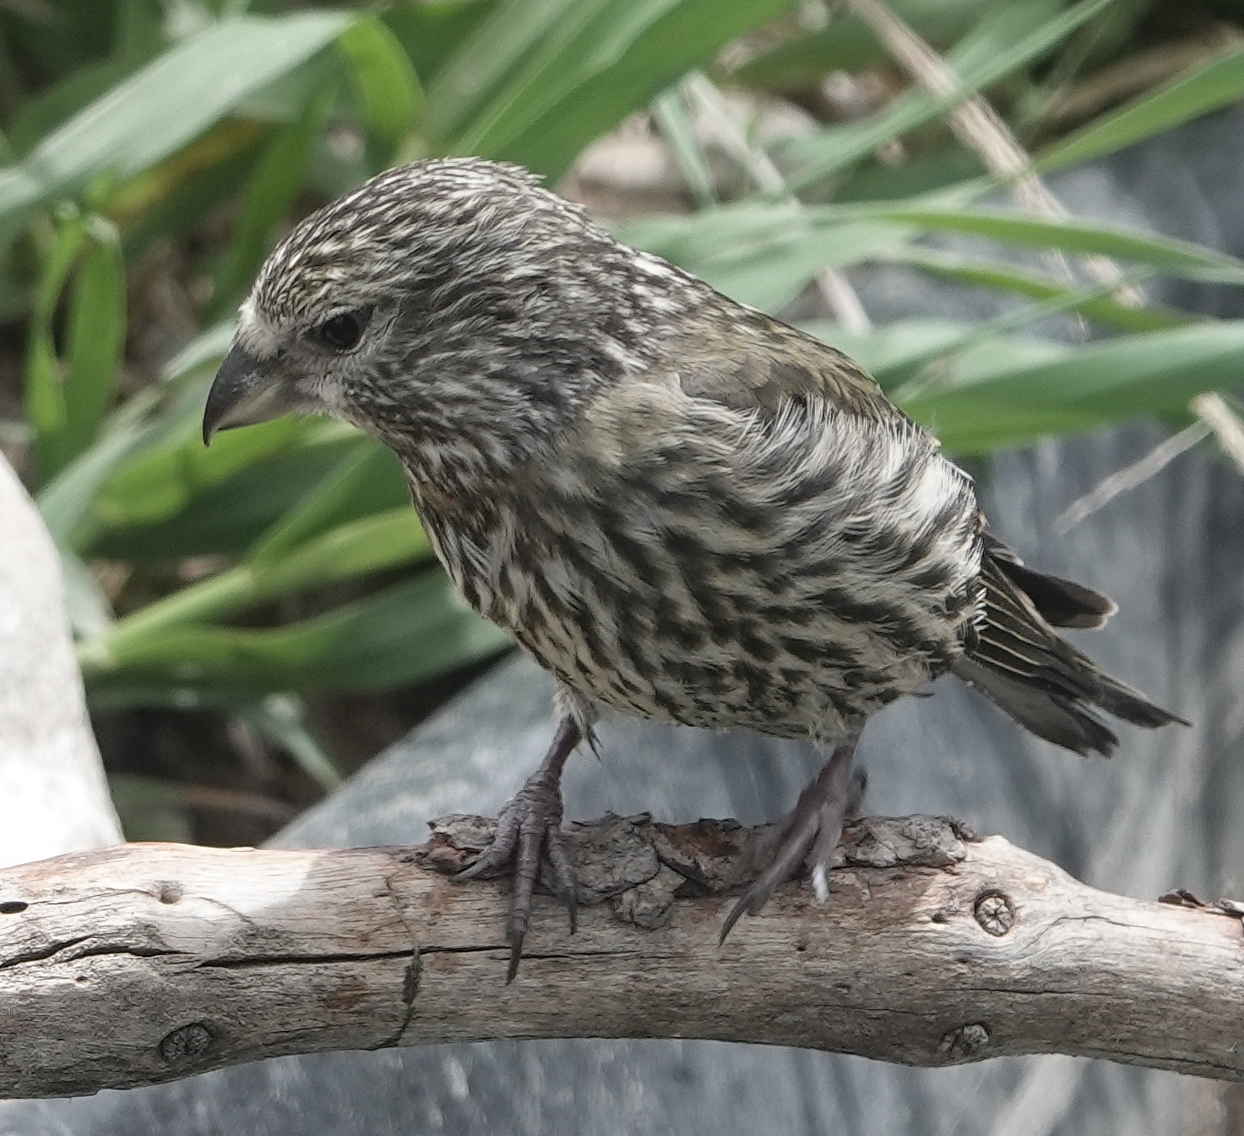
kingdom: Animalia
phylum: Chordata
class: Aves
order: Passeriformes
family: Fringillidae
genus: Loxia
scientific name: Loxia curvirostra
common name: Red crossbill
